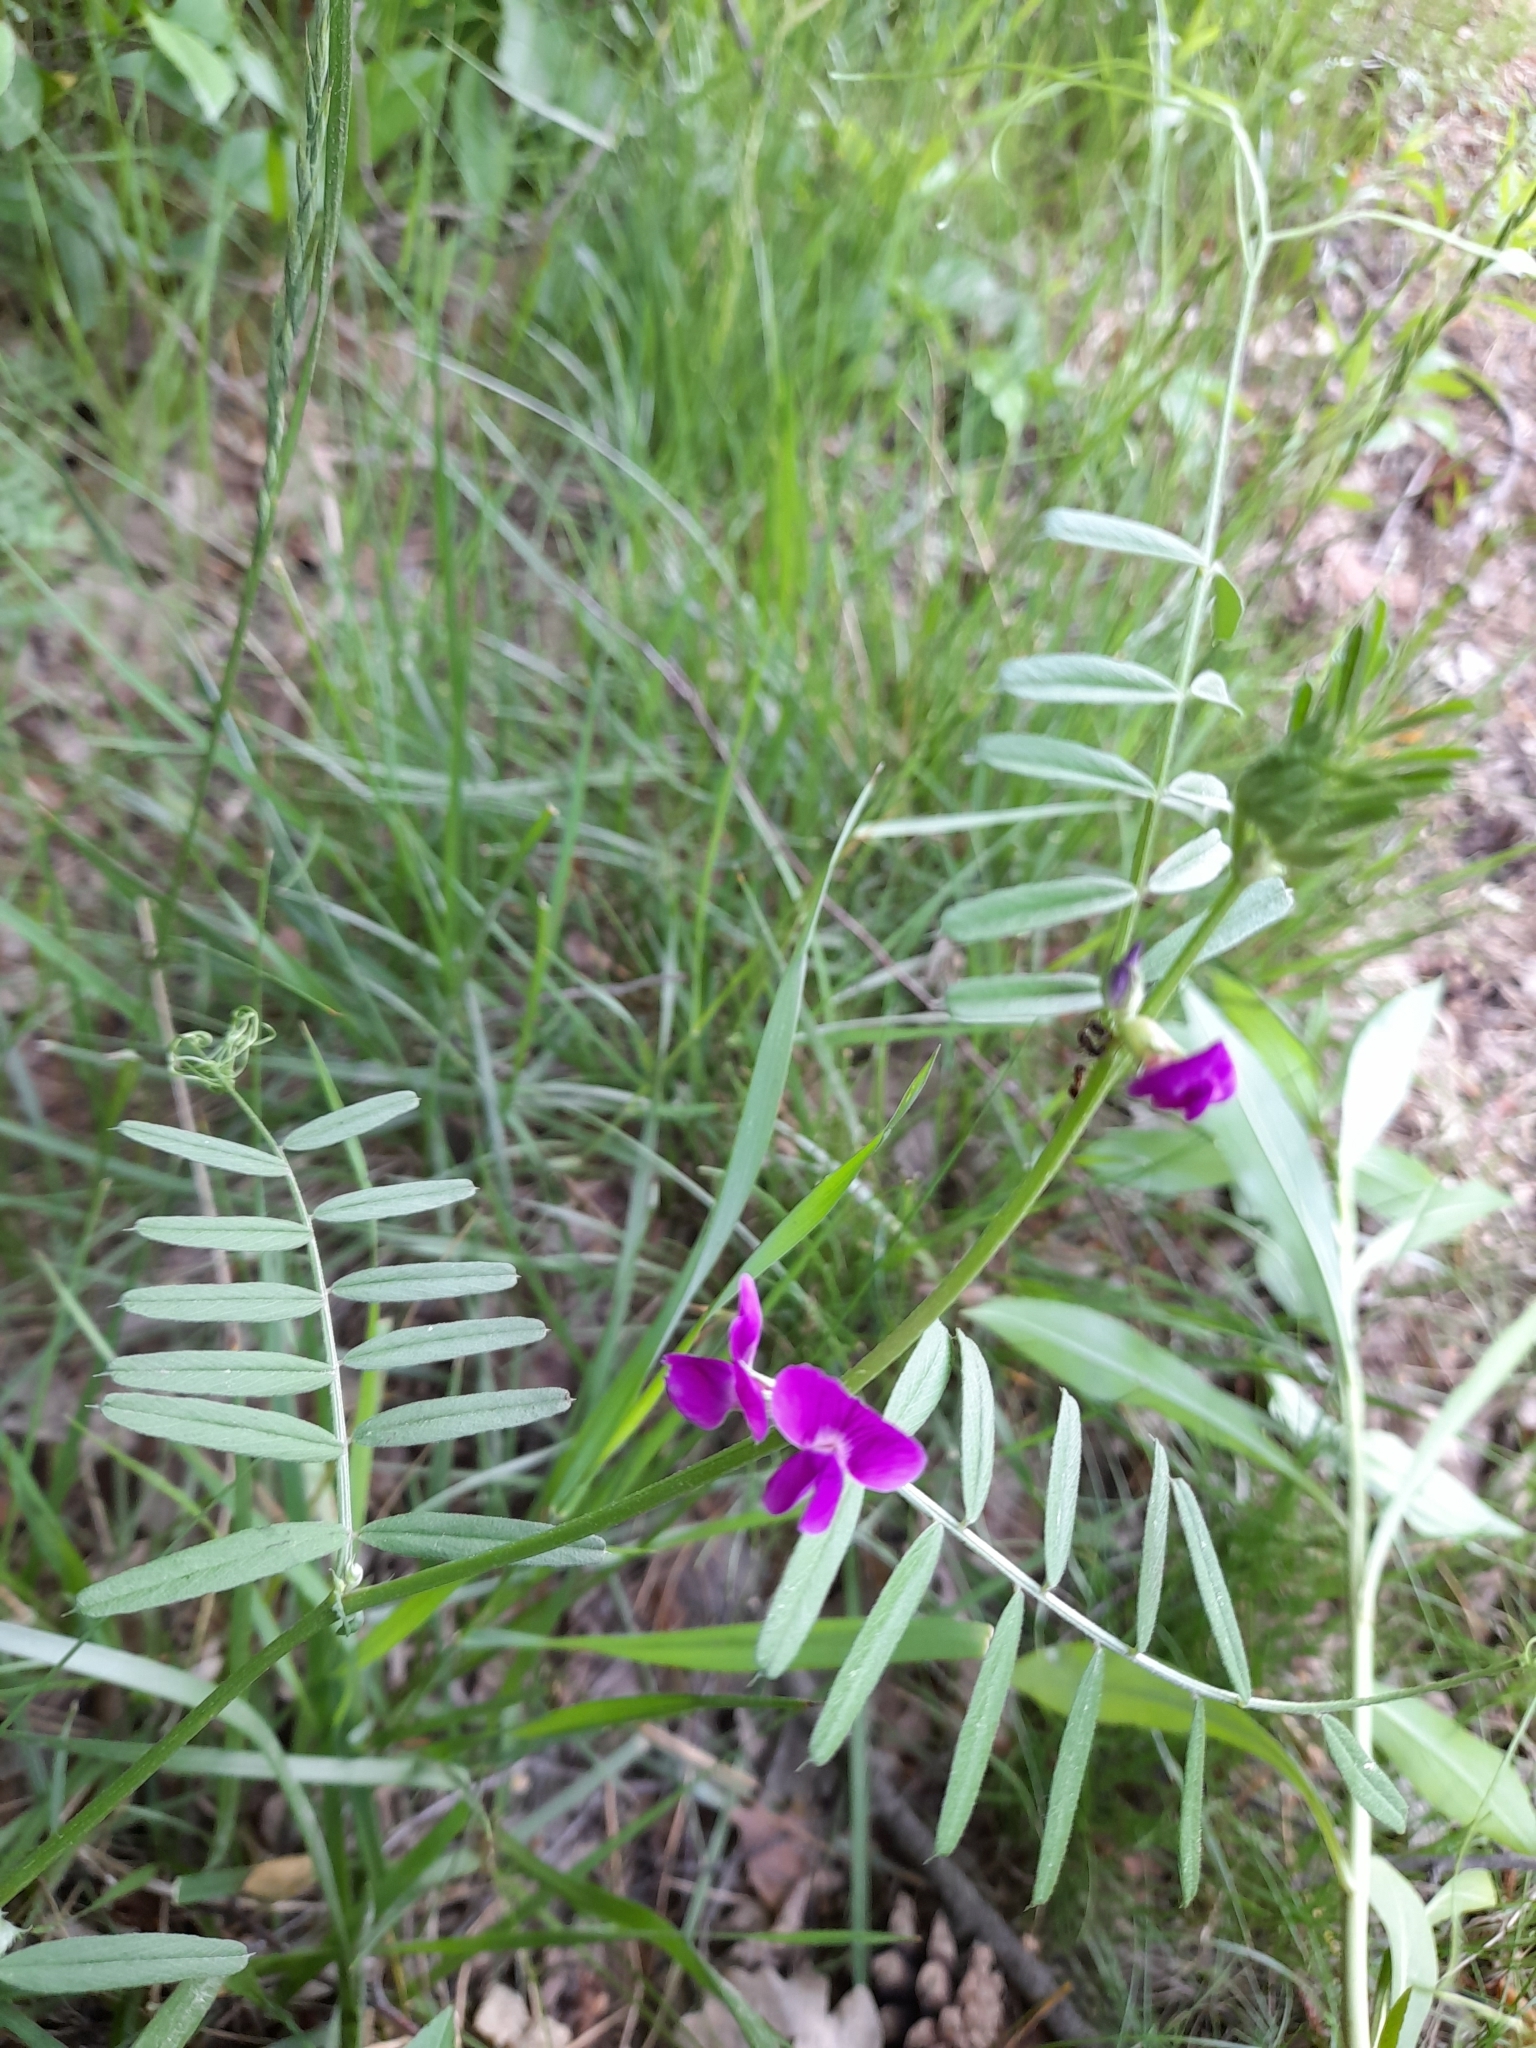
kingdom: Plantae
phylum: Tracheophyta
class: Magnoliopsida
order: Fabales
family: Fabaceae
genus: Vicia
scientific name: Vicia sativa
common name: Garden vetch
